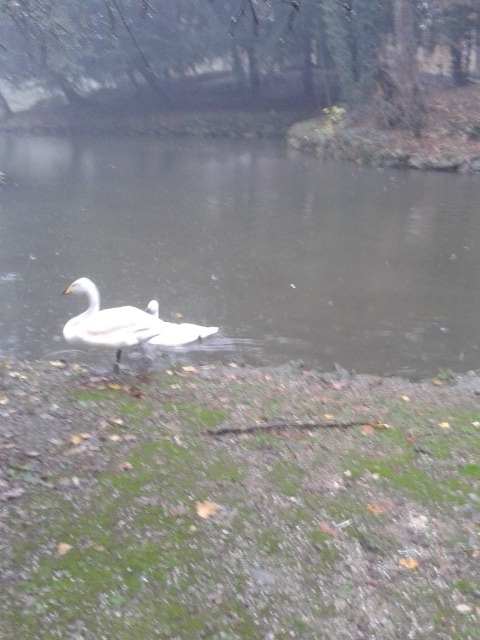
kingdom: Animalia
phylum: Chordata
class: Aves
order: Anseriformes
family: Anatidae
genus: Cygnus
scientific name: Cygnus cygnus
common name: Whooper swan
